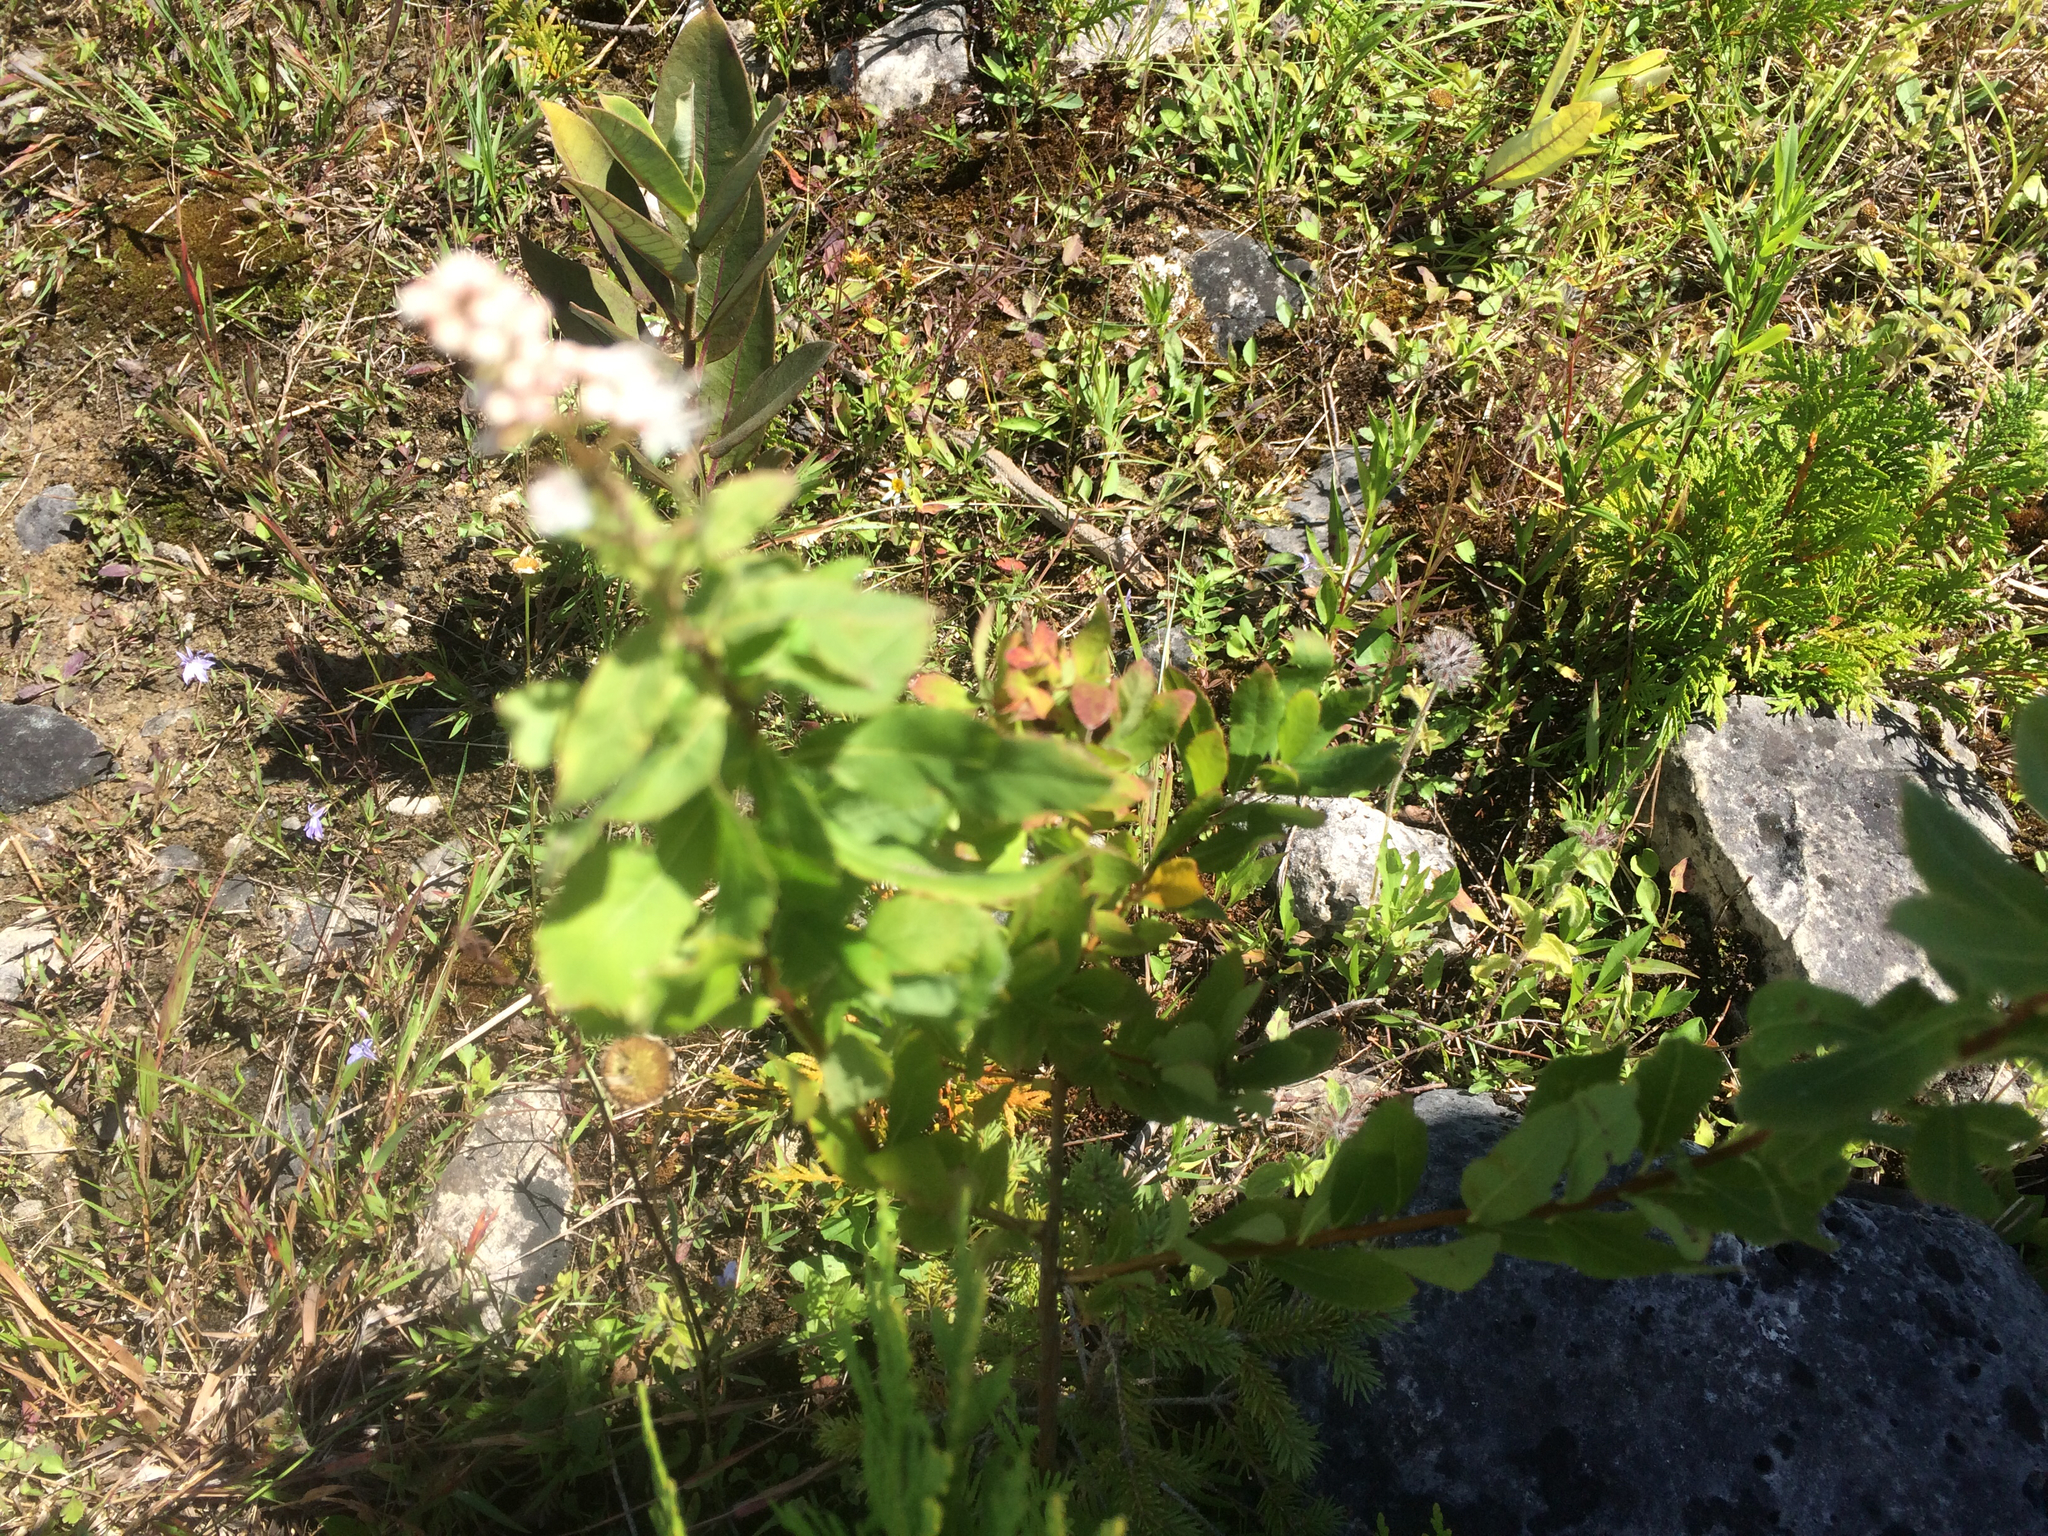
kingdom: Plantae
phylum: Tracheophyta
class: Magnoliopsida
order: Rosales
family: Rosaceae
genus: Spiraea
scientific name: Spiraea alba
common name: Pale bridewort
